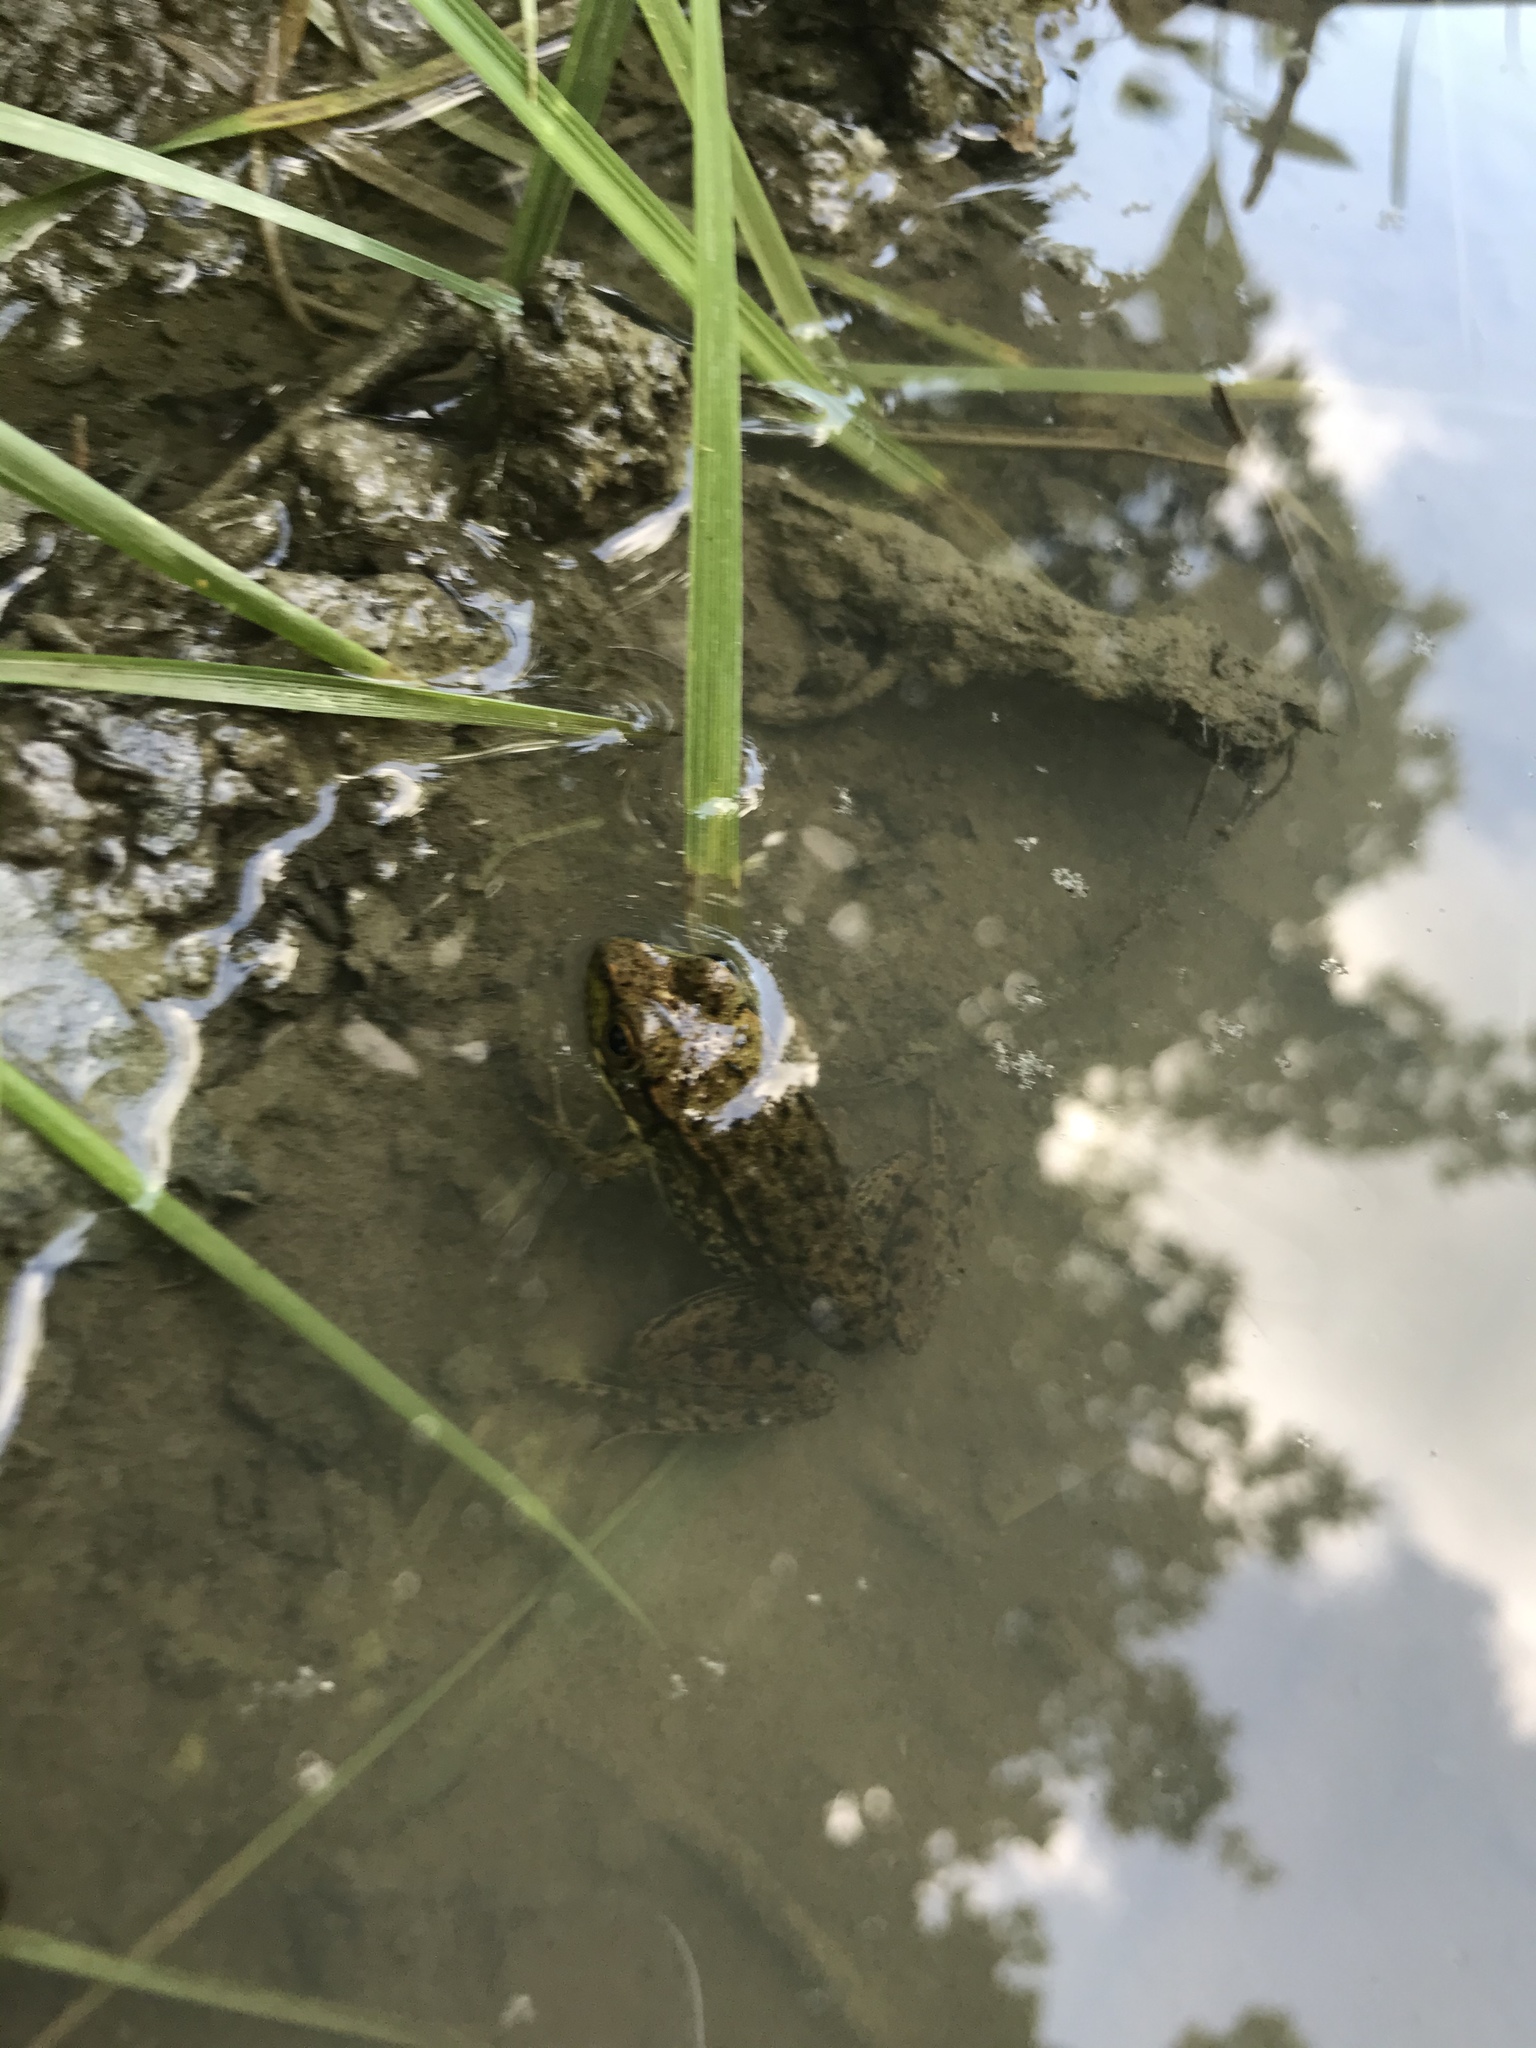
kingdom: Animalia
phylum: Chordata
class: Amphibia
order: Anura
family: Ranidae
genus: Lithobates
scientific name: Lithobates clamitans
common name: Green frog
